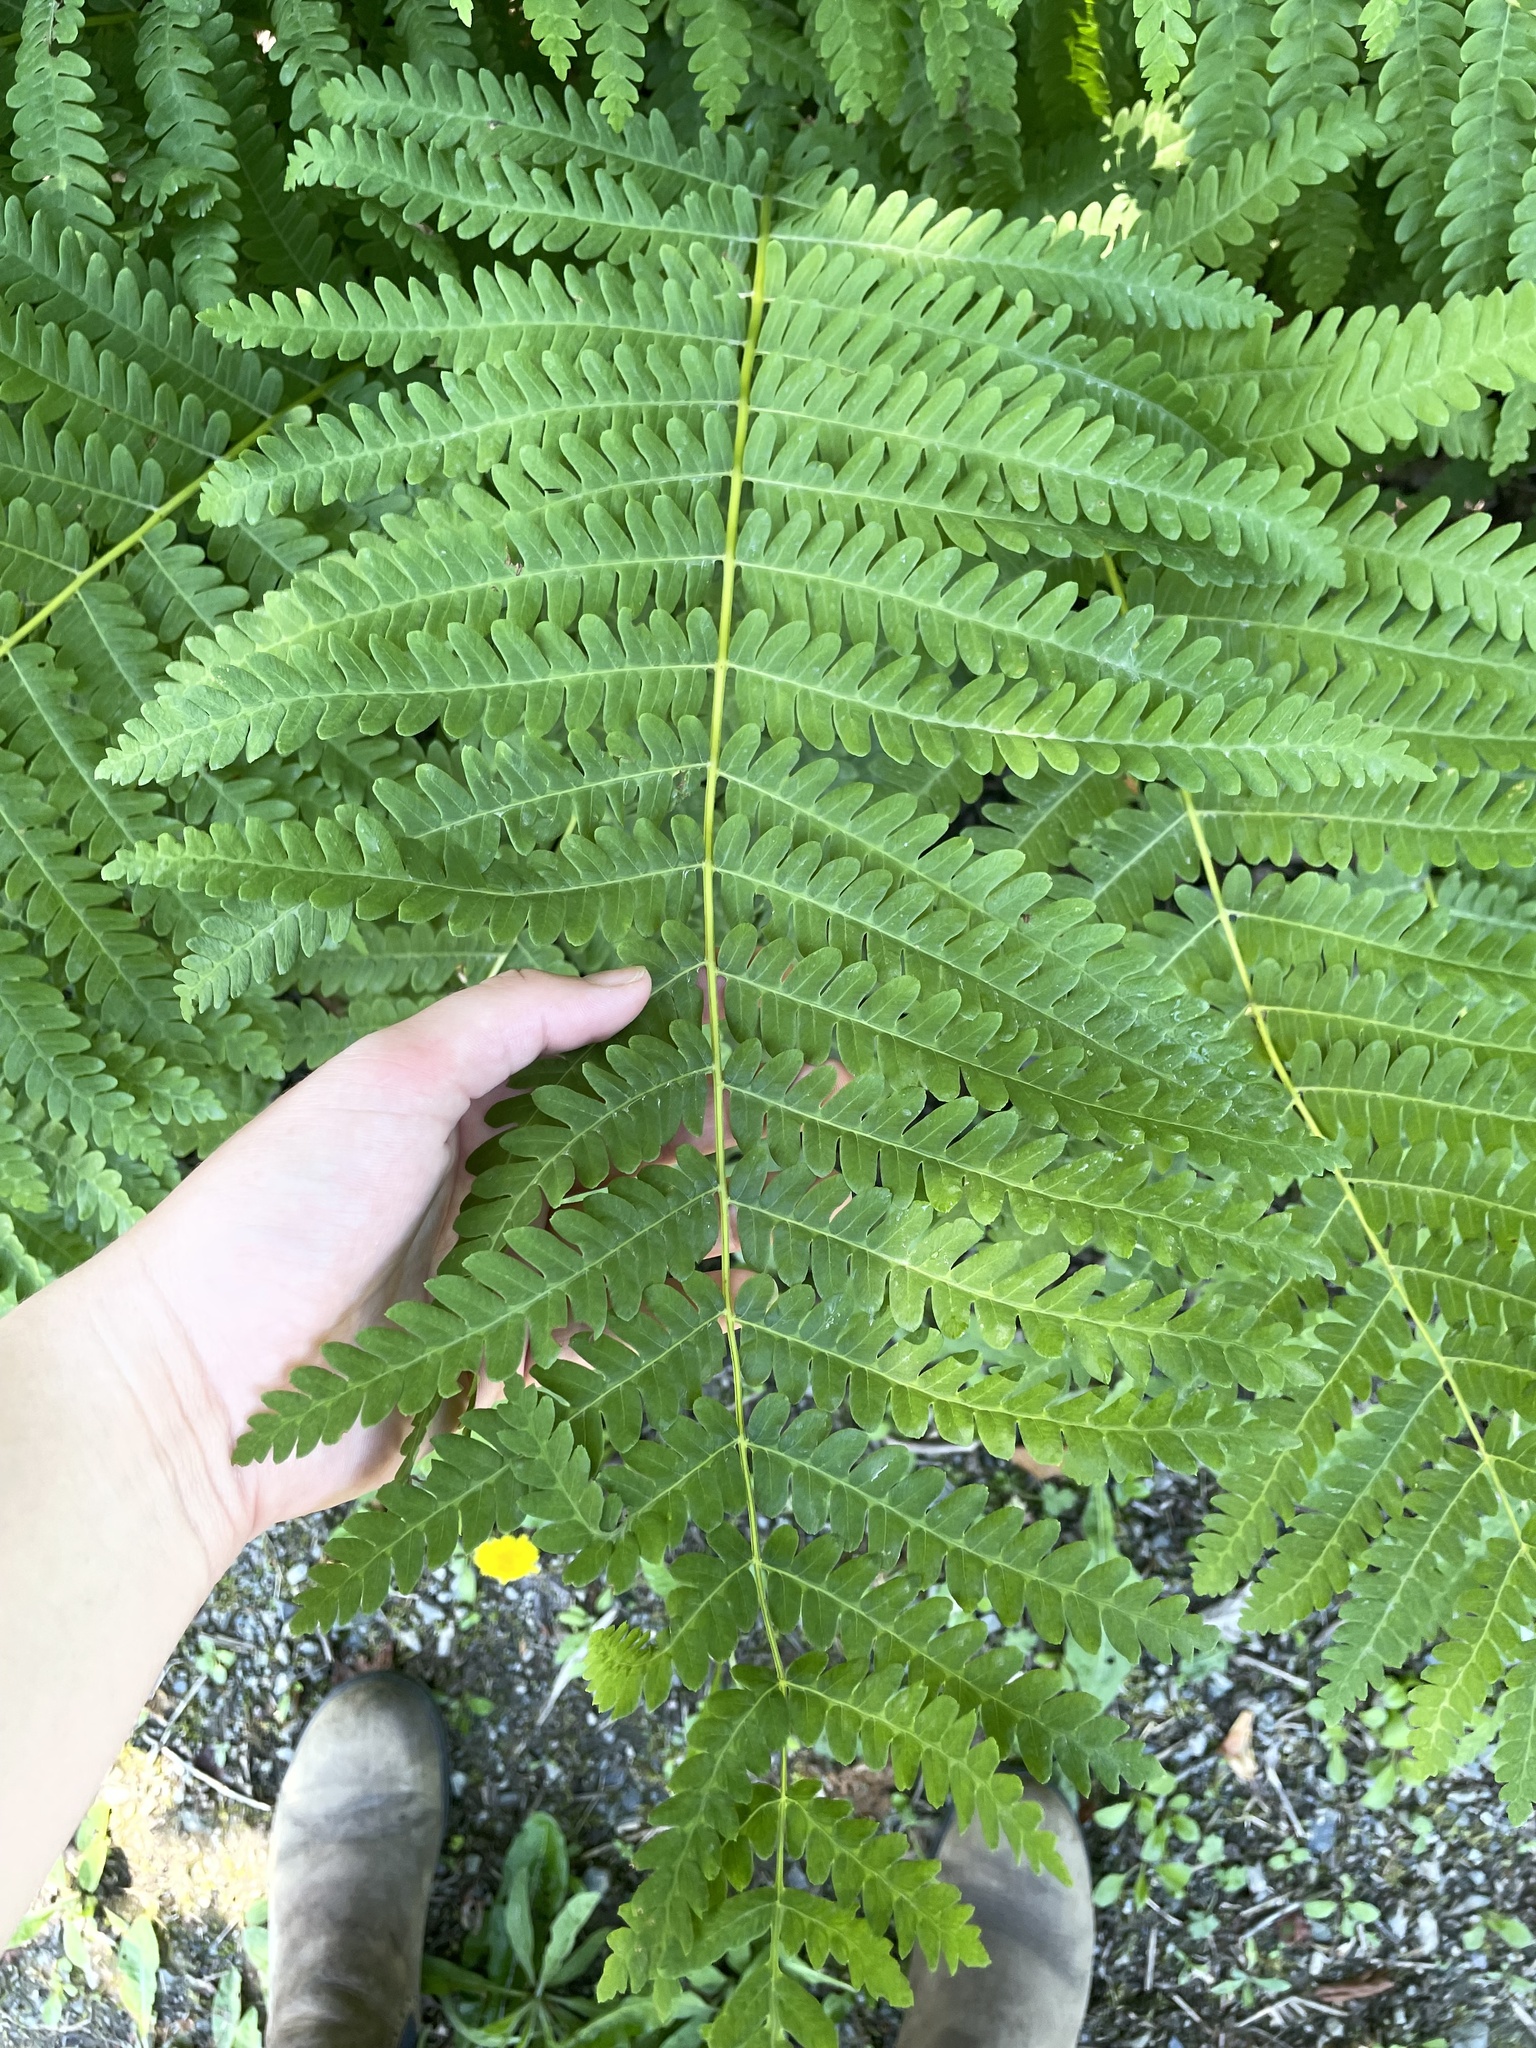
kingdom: Plantae
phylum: Tracheophyta
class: Polypodiopsida
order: Osmundales
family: Osmundaceae
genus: Claytosmunda
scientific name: Claytosmunda claytoniana
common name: Clayton's fern
